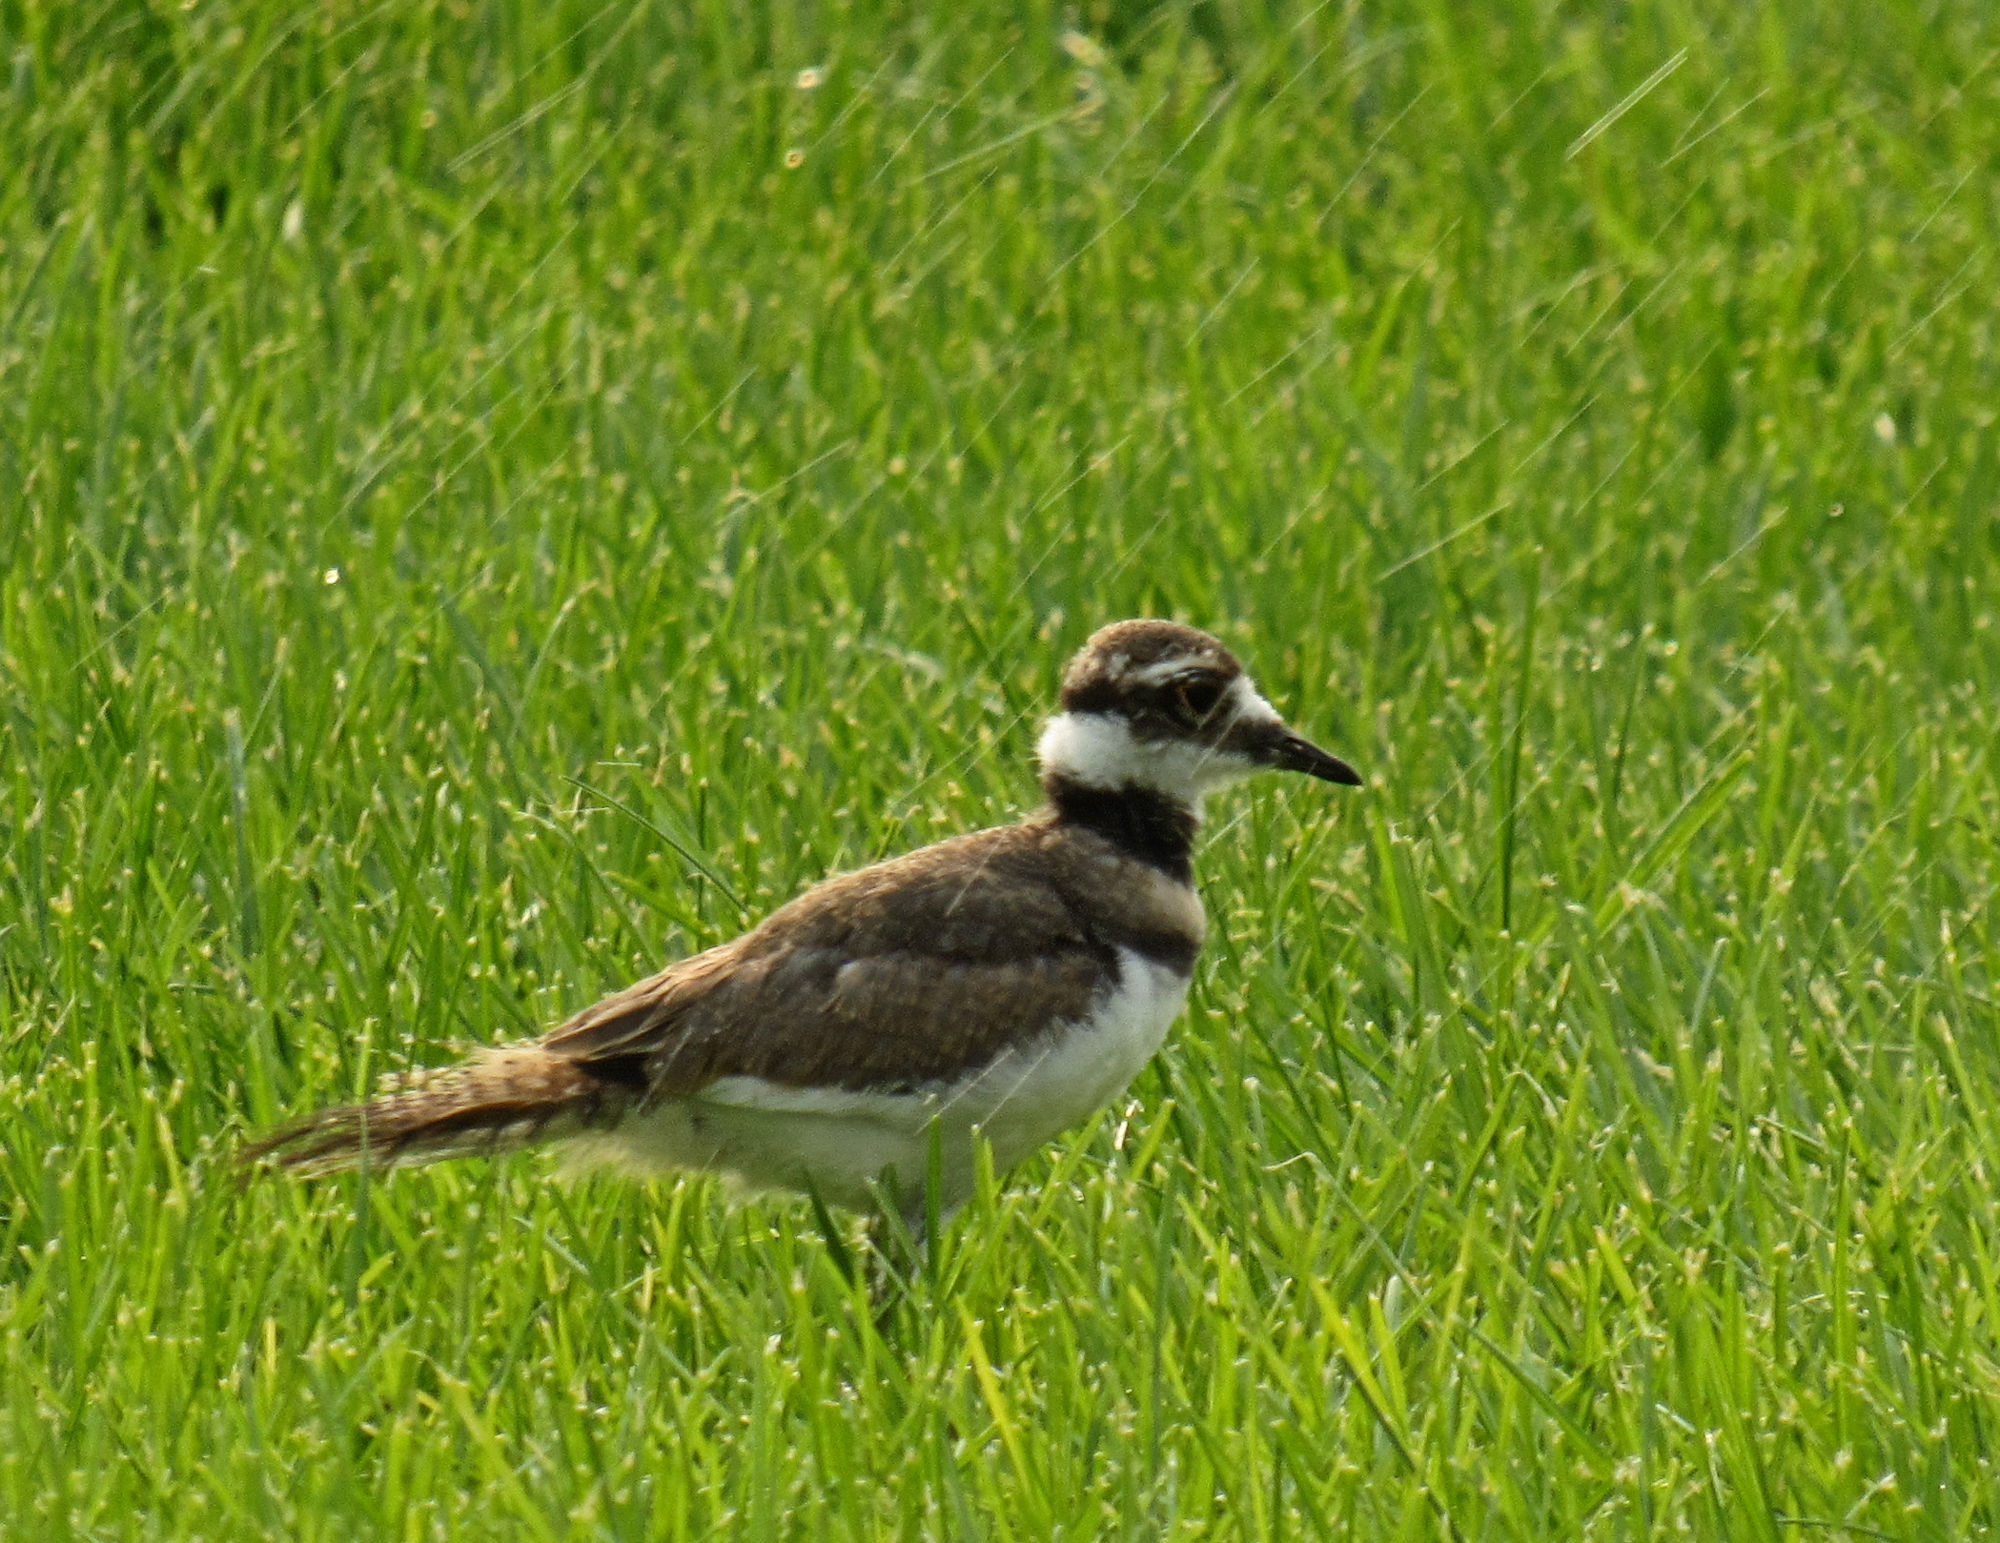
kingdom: Animalia
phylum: Chordata
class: Aves
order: Charadriiformes
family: Charadriidae
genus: Charadrius
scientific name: Charadrius vociferus
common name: Killdeer
